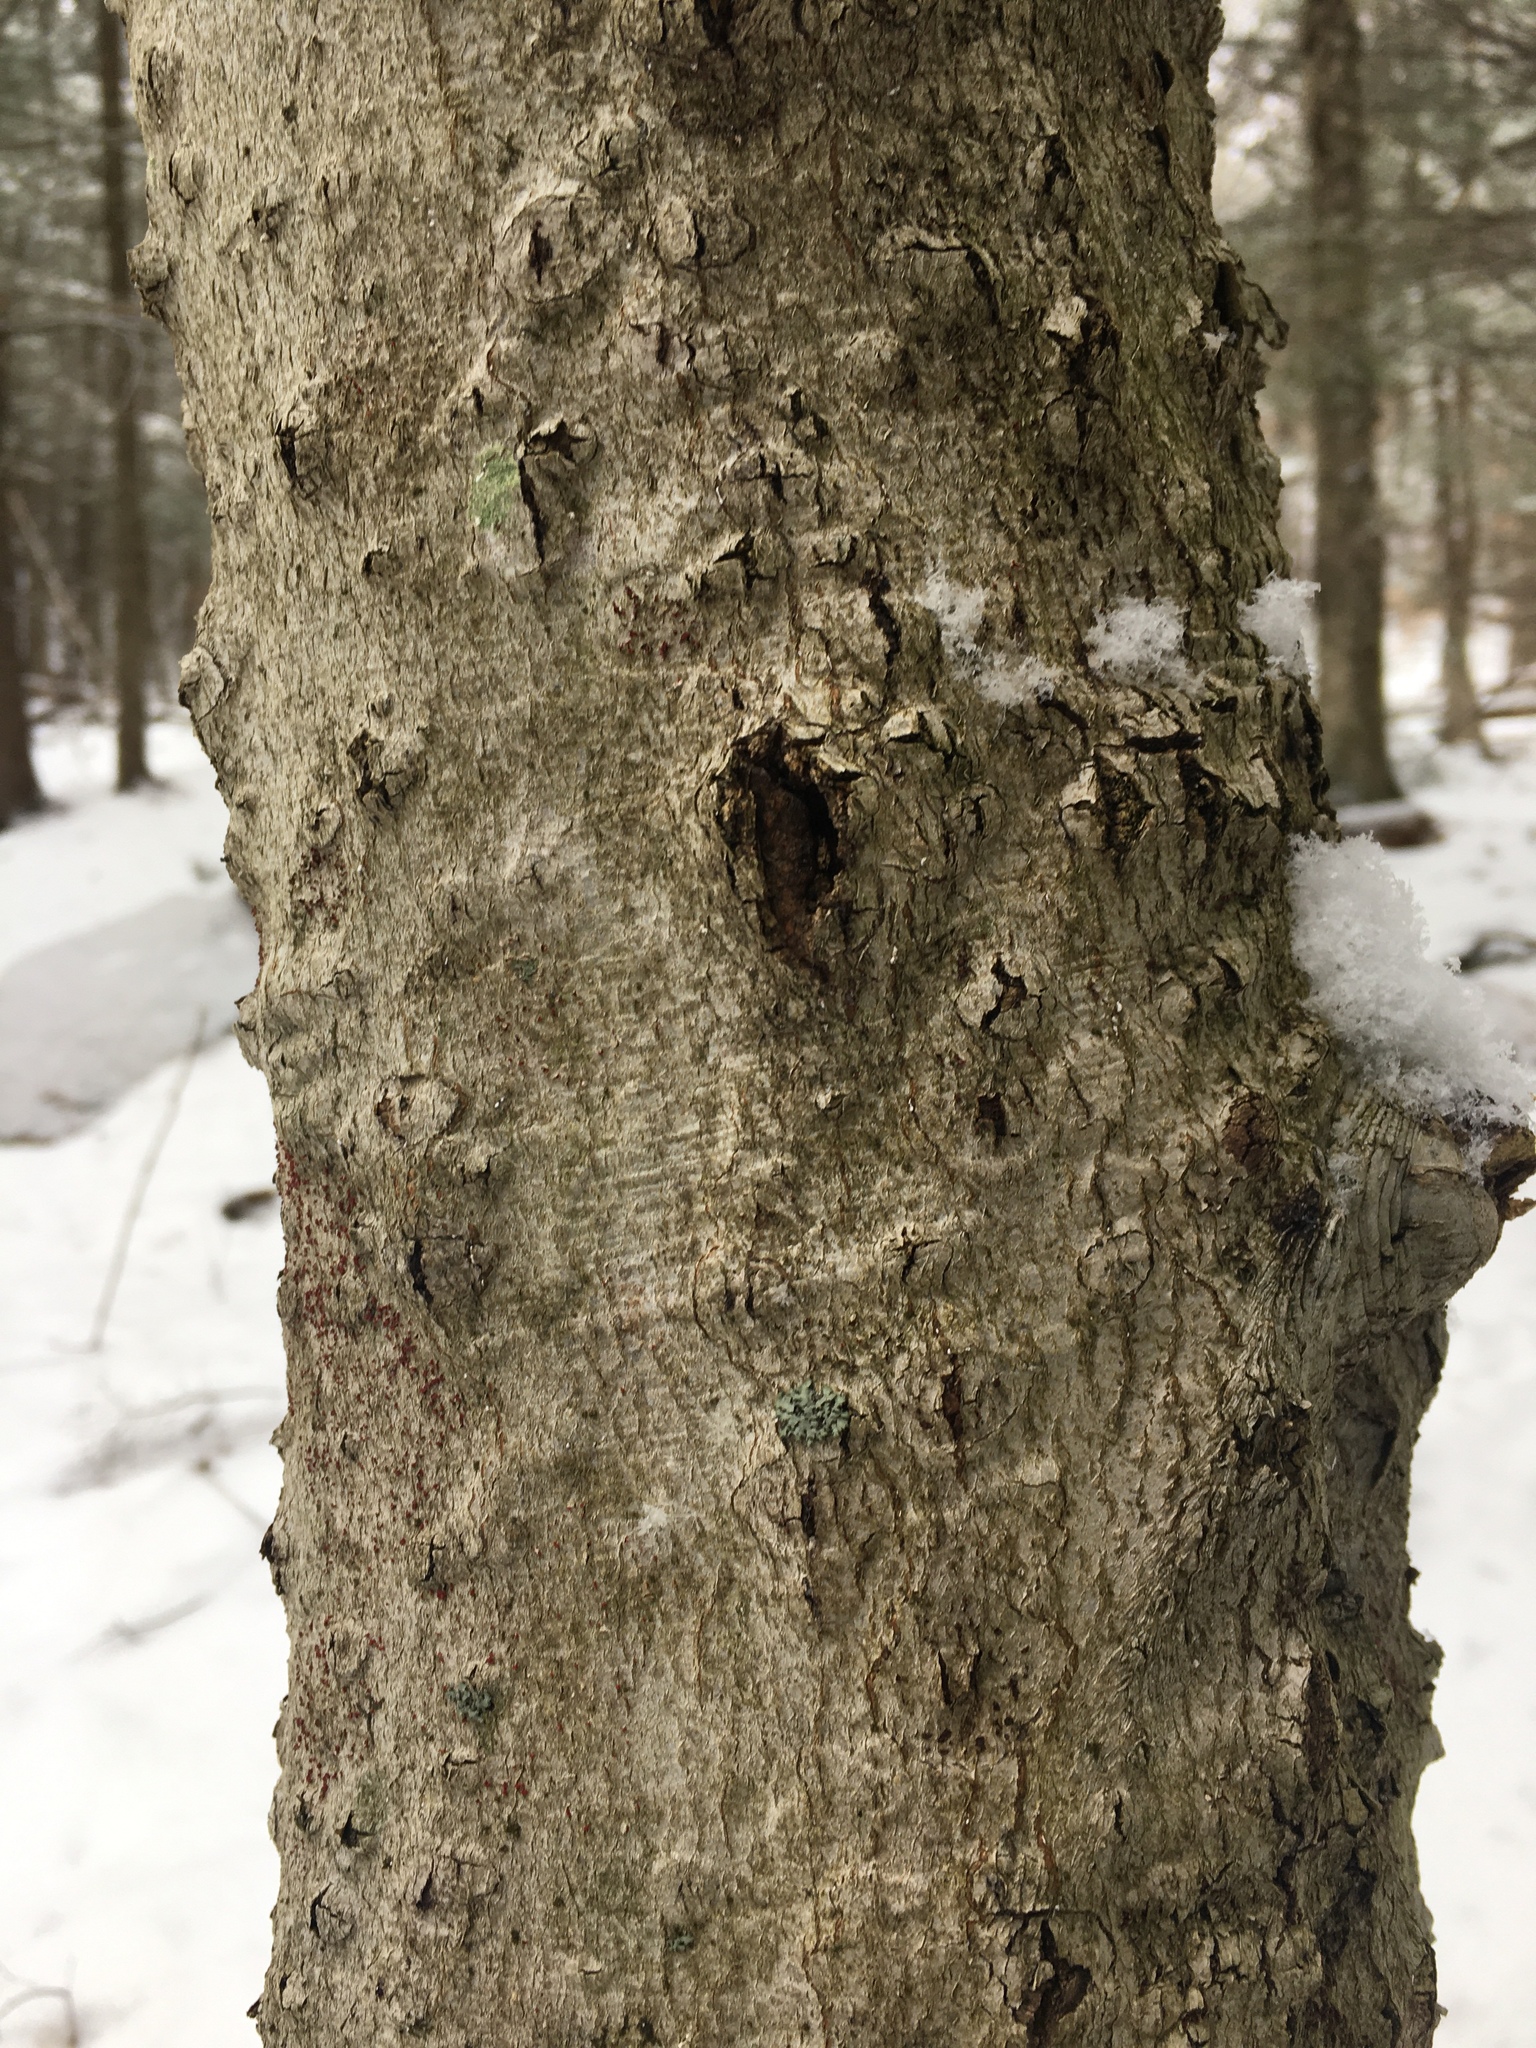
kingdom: Animalia
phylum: Arthropoda
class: Insecta
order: Hemiptera
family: Eriococcidae
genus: Cryptococcus
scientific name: Cryptococcus fagisuga
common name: Beech scale
